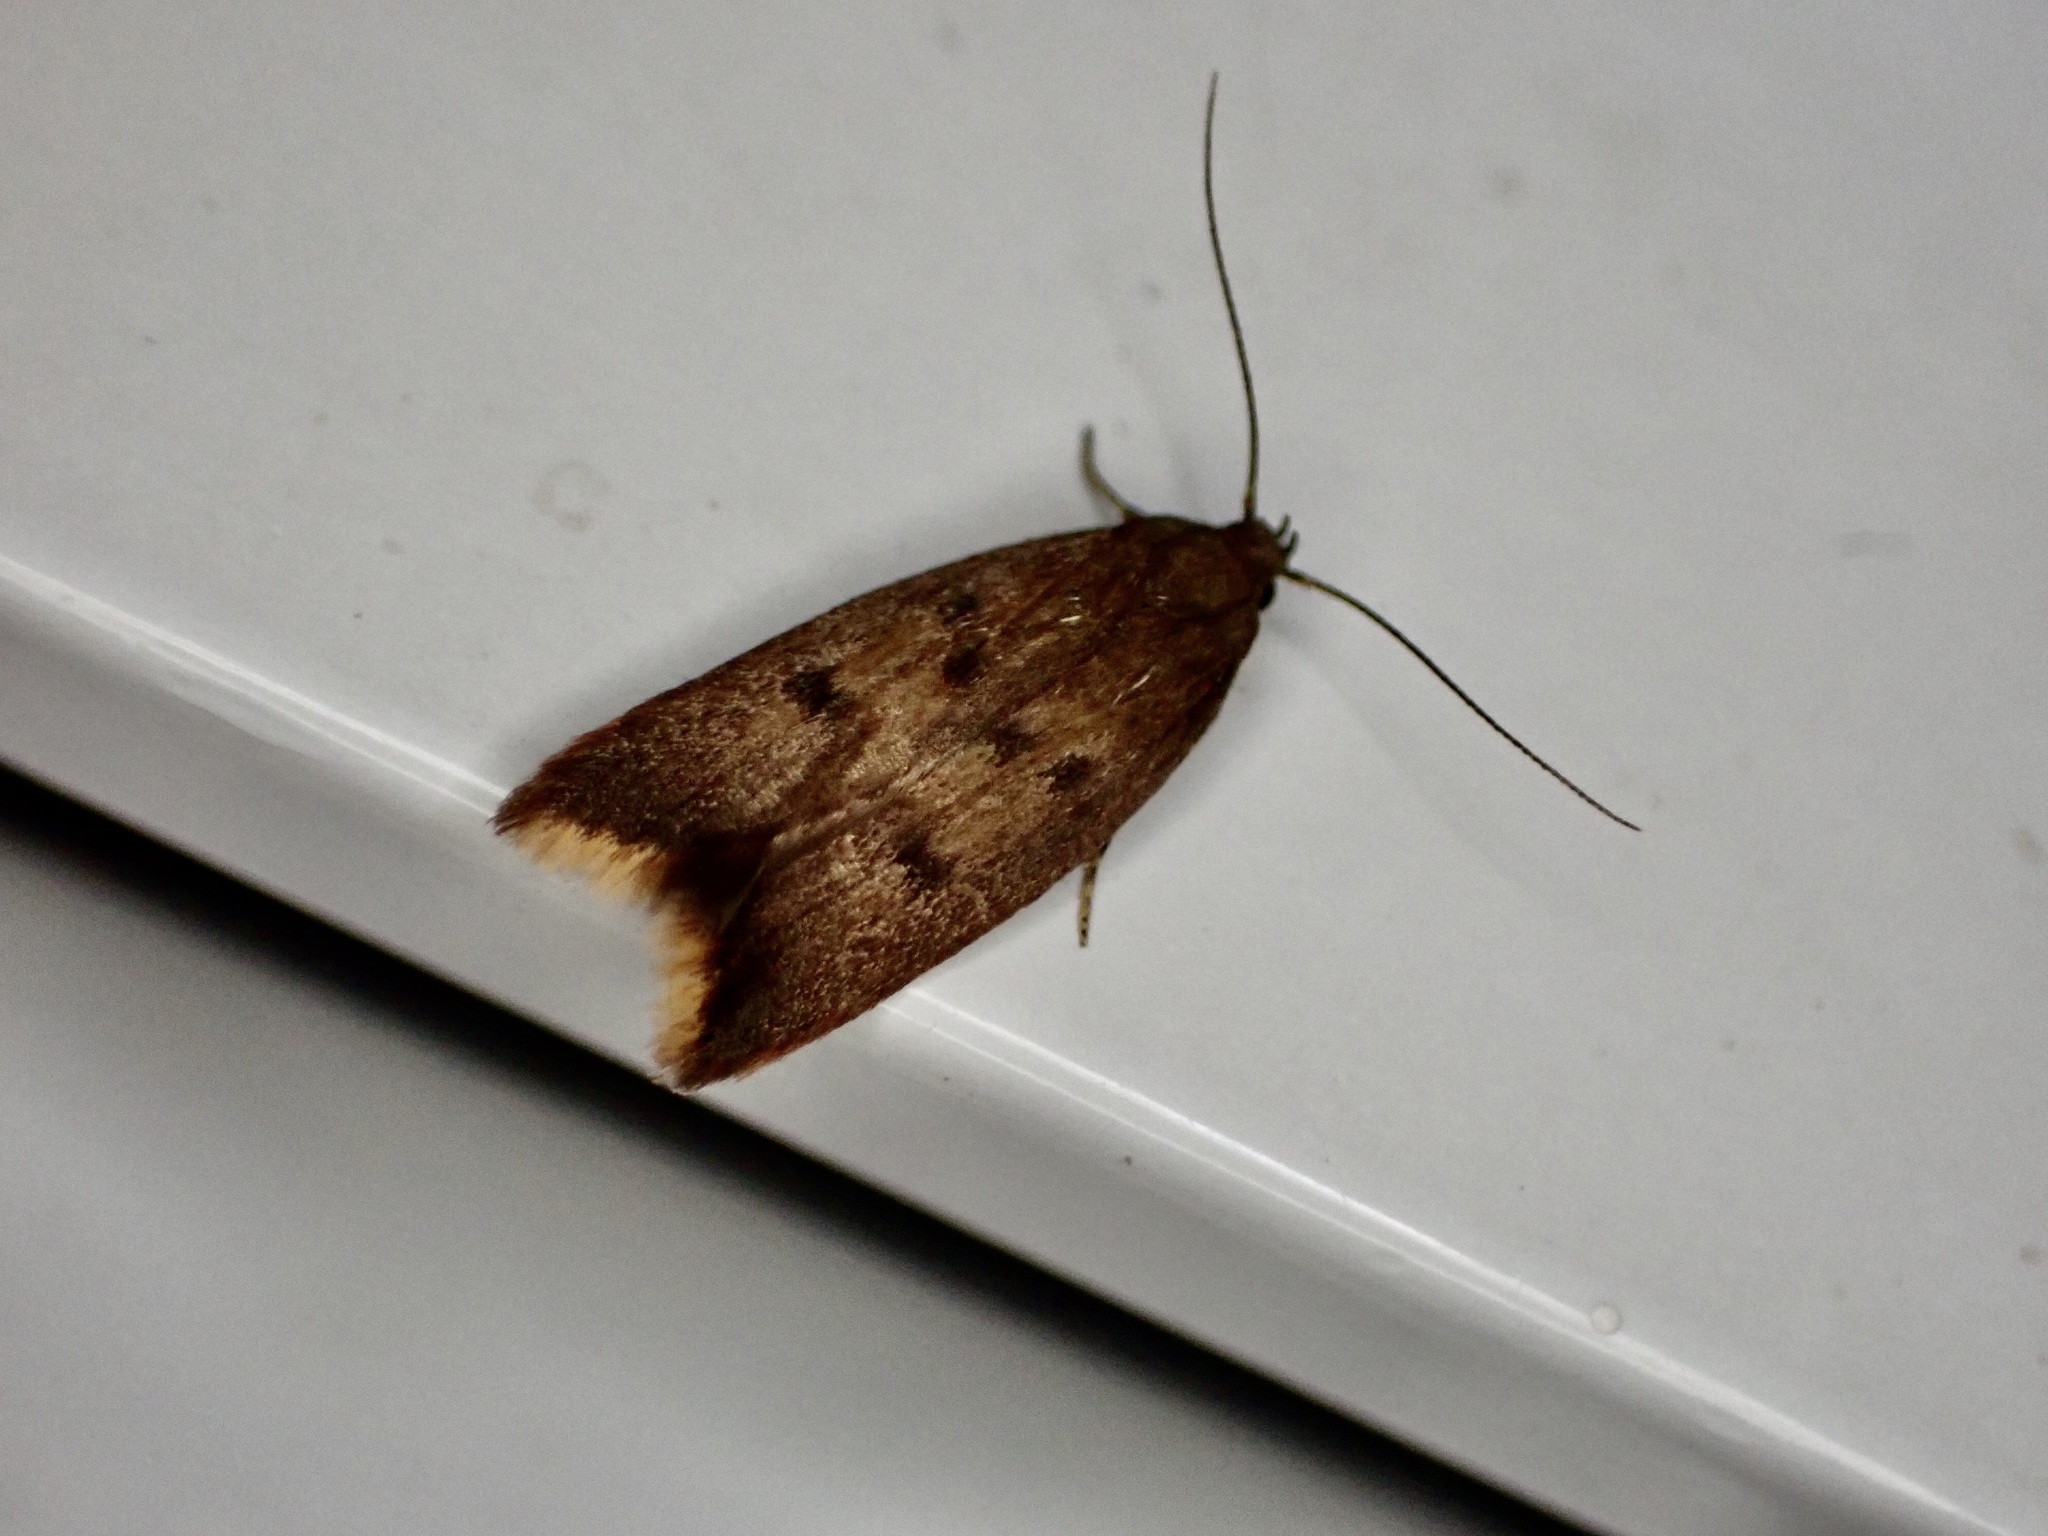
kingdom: Animalia
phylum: Arthropoda
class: Insecta
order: Lepidoptera
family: Oecophoridae
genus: Tachystola
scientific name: Tachystola acroxantha
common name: Ruddy streak
